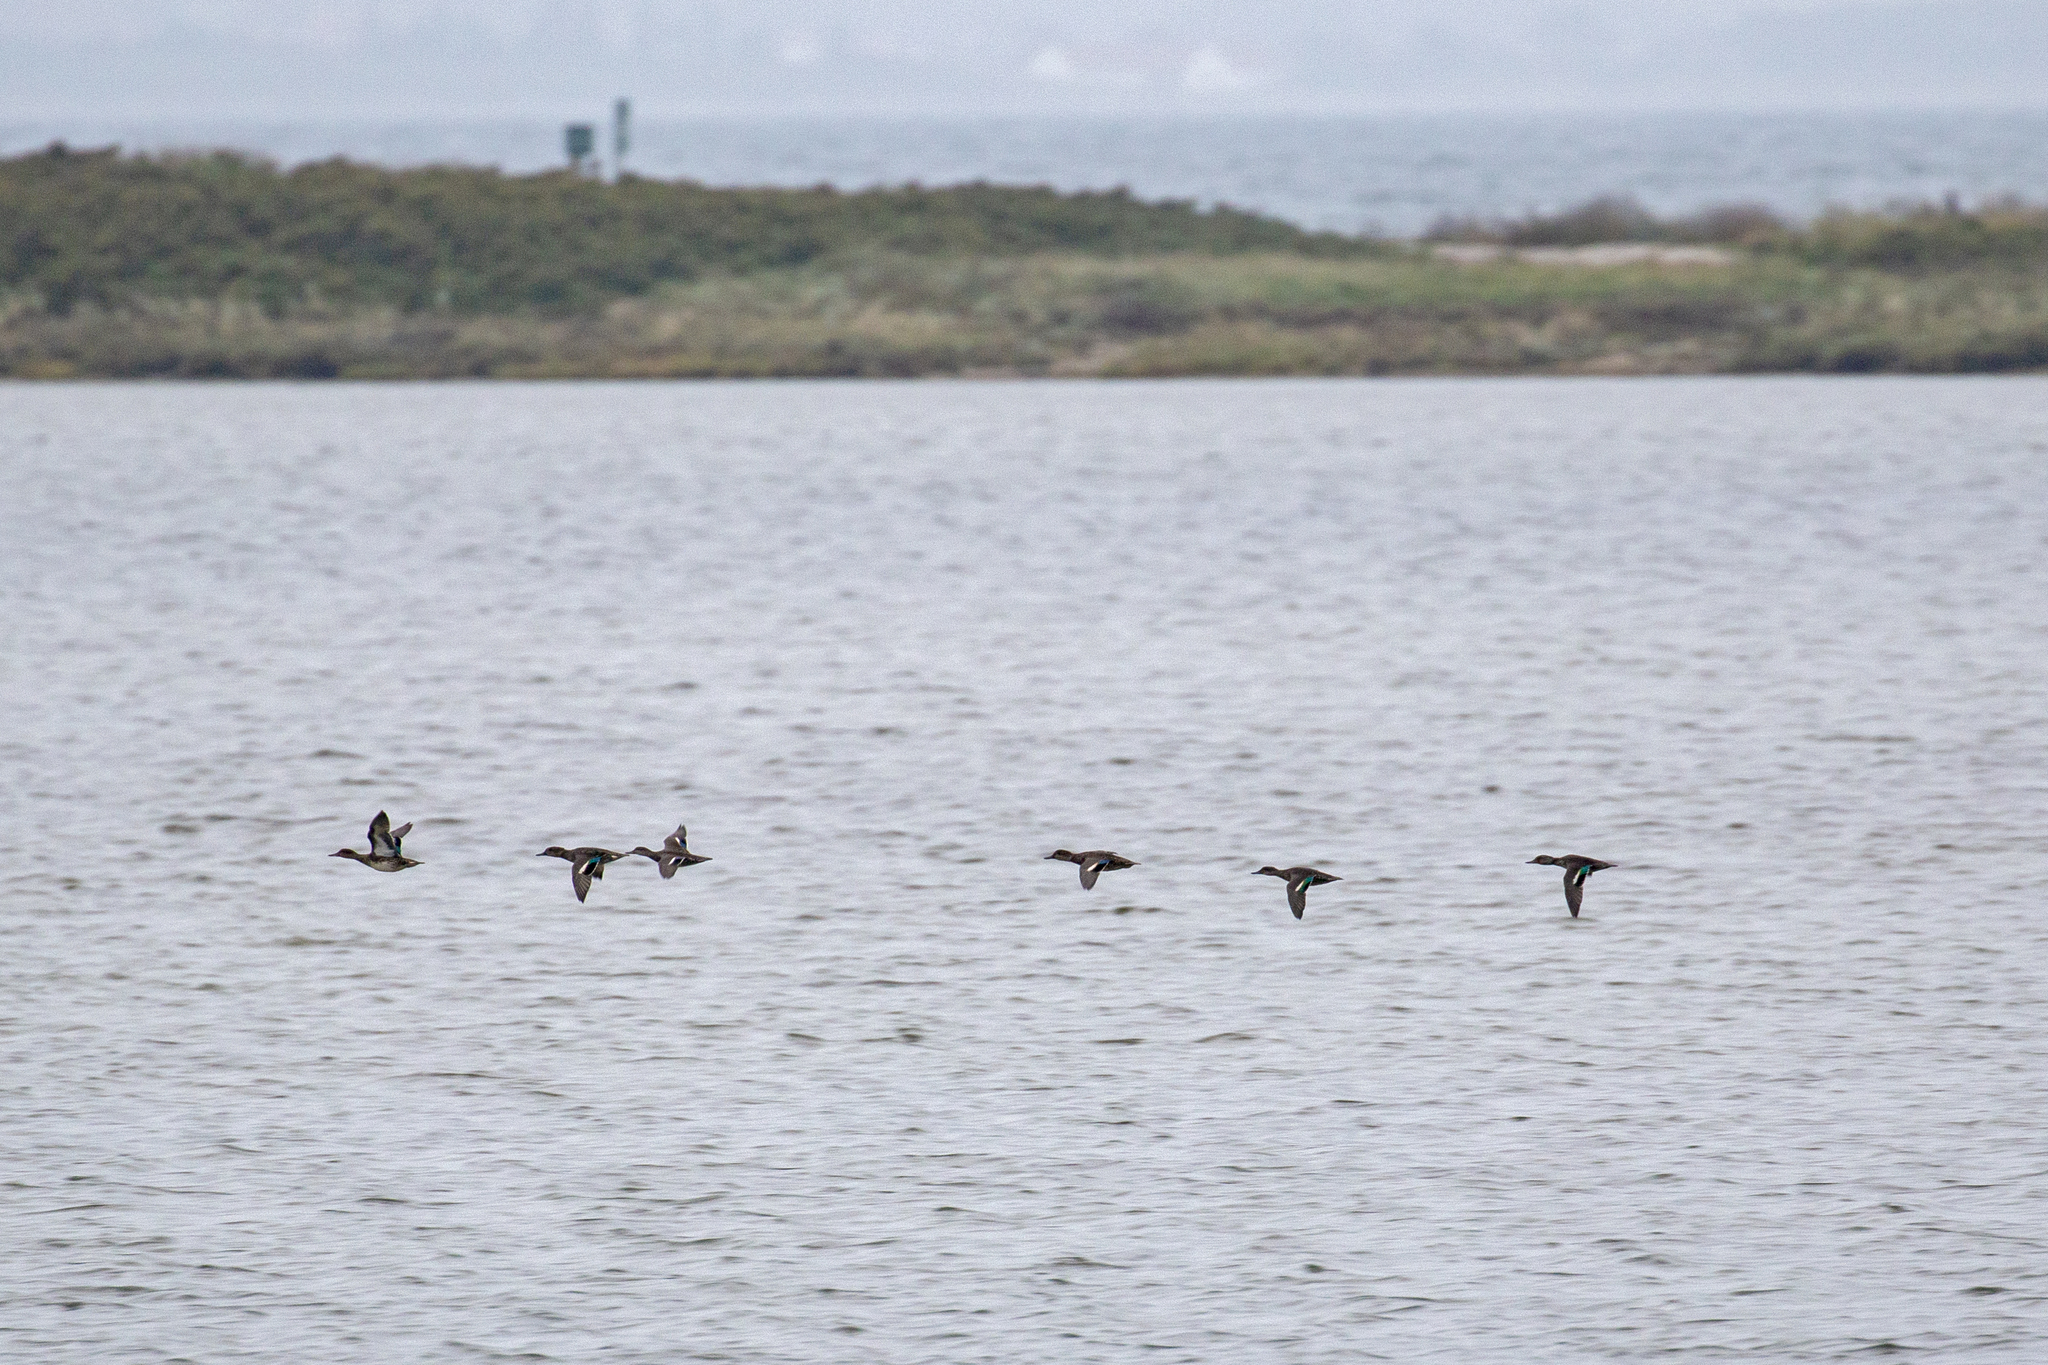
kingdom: Animalia
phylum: Chordata
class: Aves
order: Anseriformes
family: Anatidae
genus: Anas
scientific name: Anas crecca
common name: Eurasian teal
